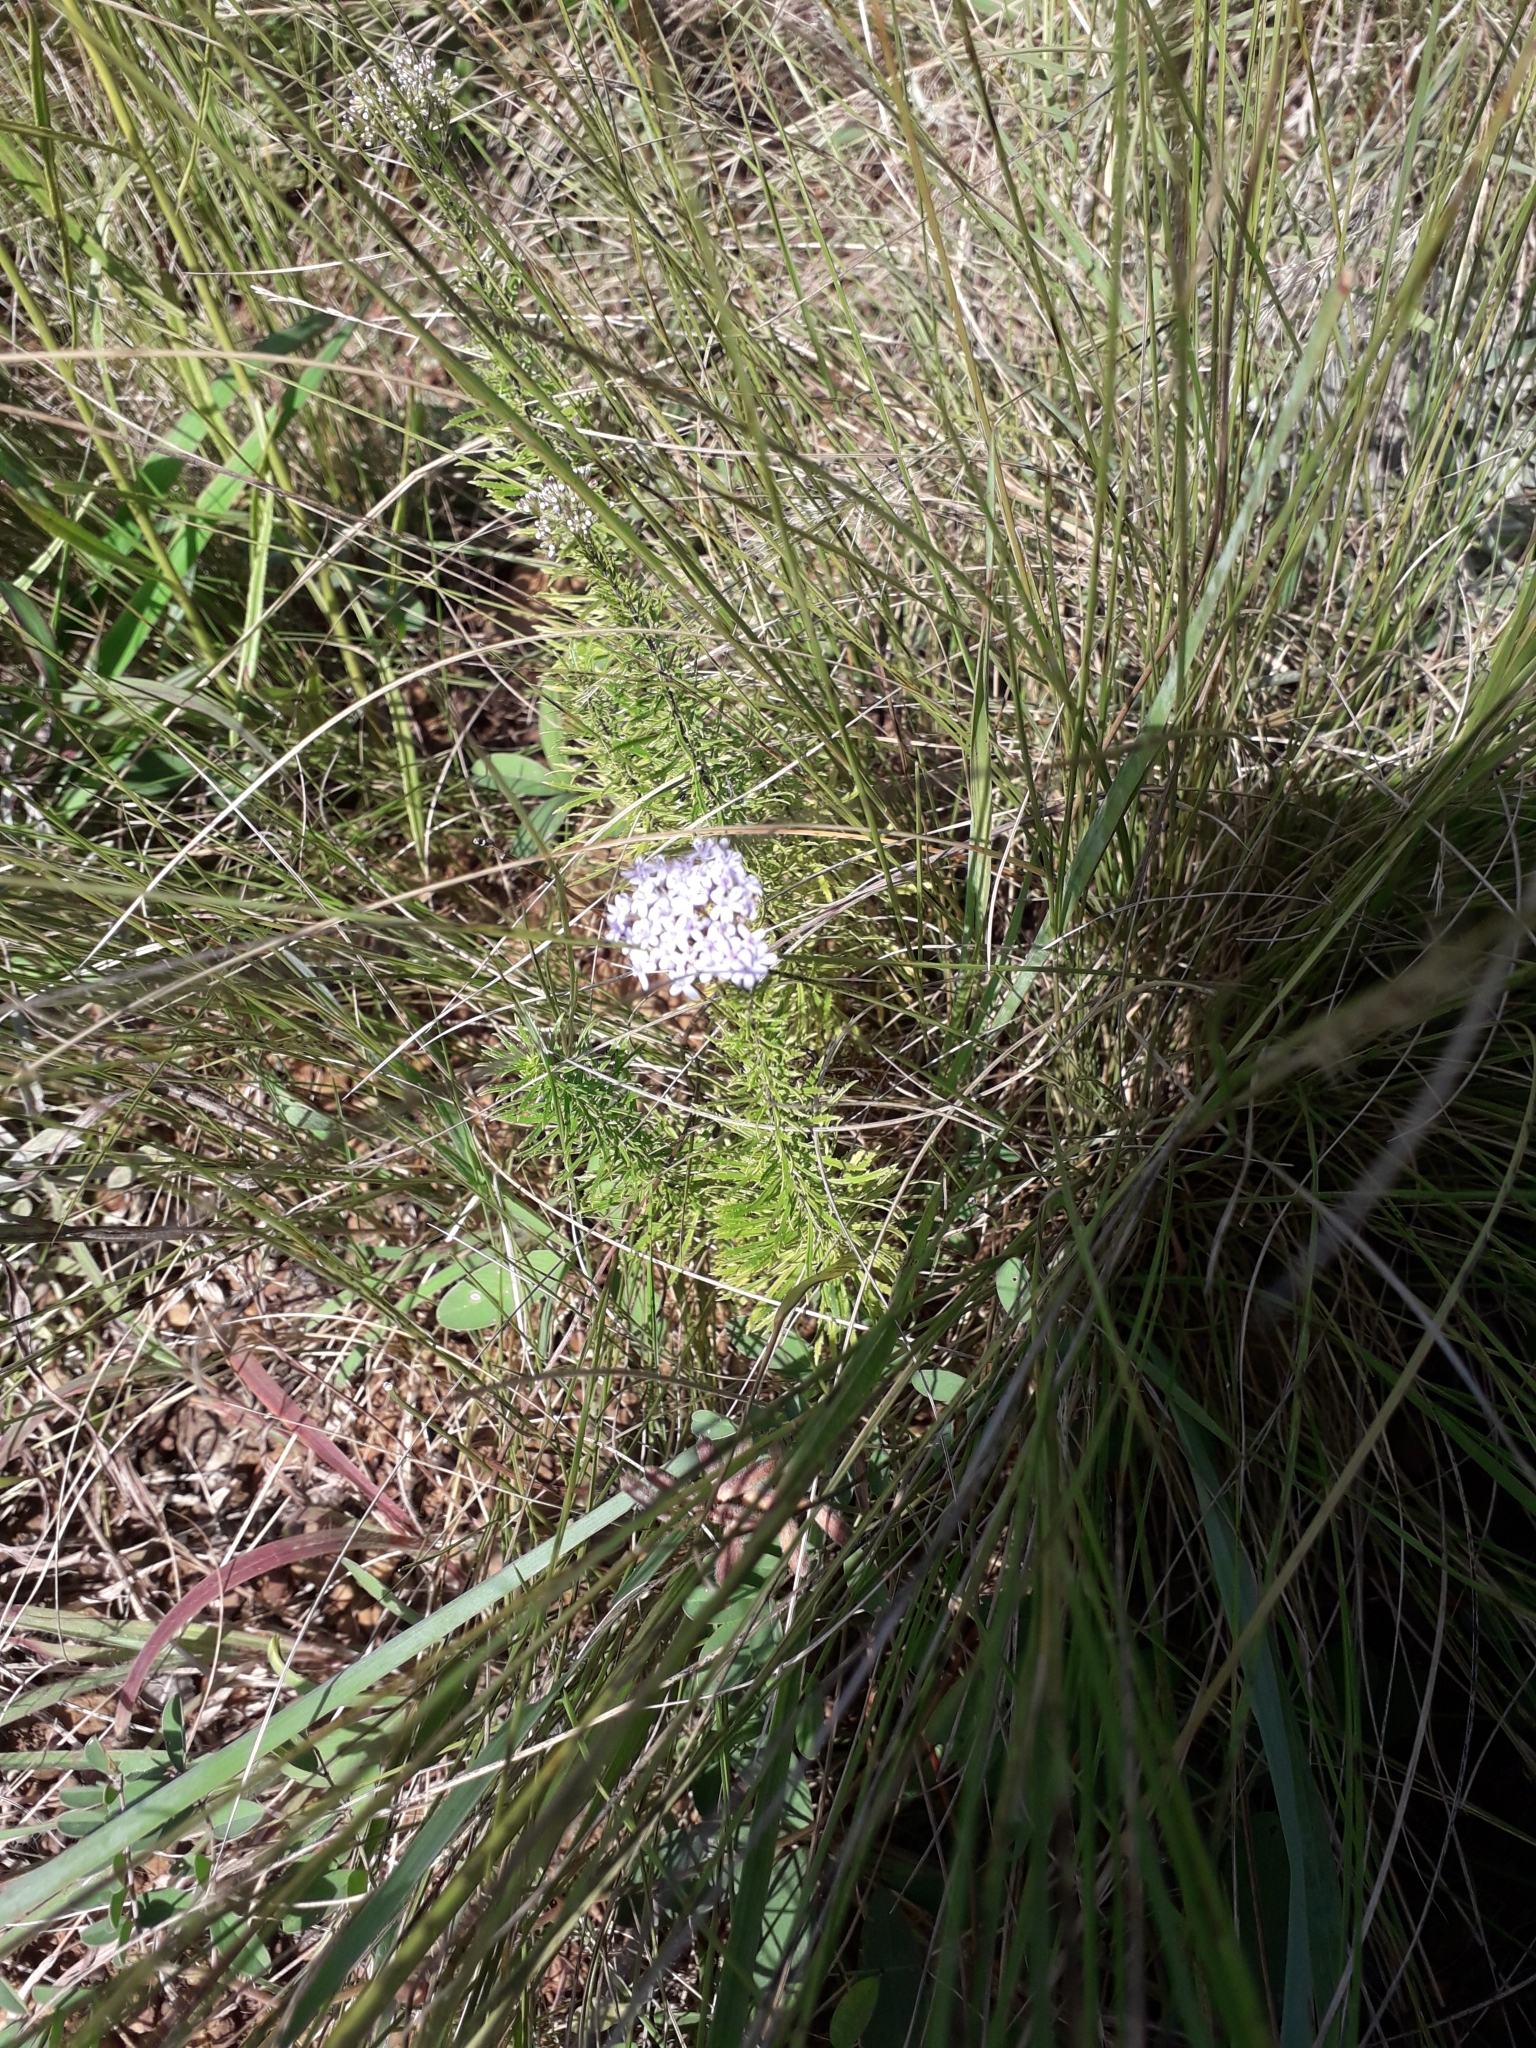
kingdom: Plantae
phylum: Tracheophyta
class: Magnoliopsida
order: Lamiales
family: Scrophulariaceae
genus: Tetraselago
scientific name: Tetraselago natalensis
